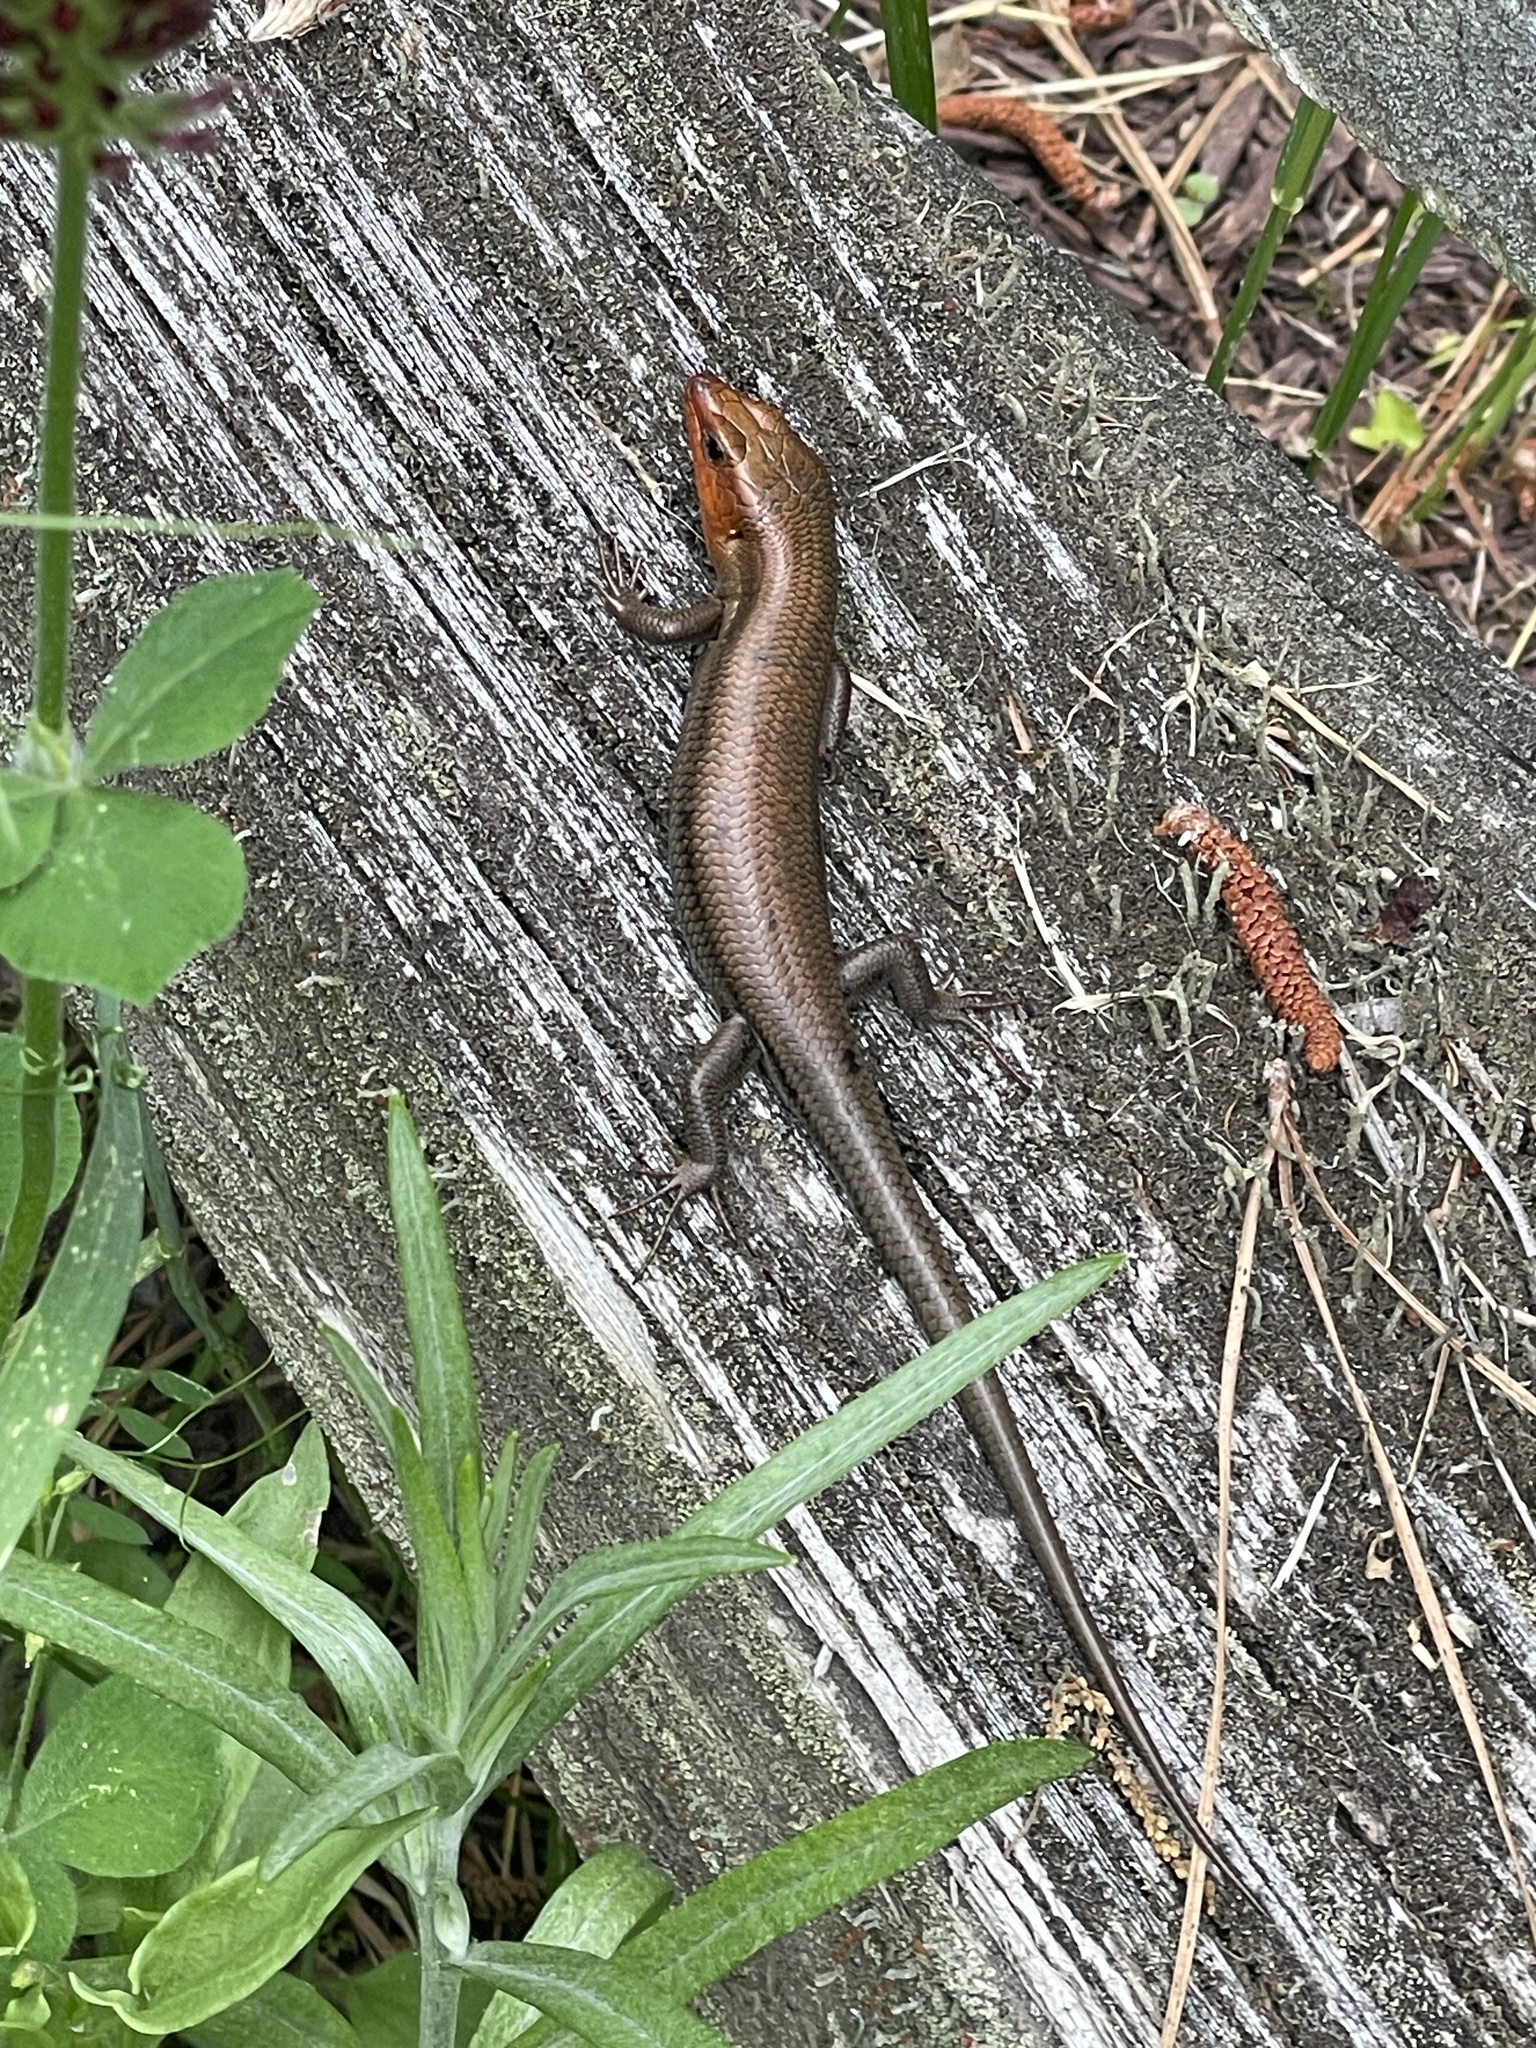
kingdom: Animalia
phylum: Chordata
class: Squamata
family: Scincidae
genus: Plestiodon
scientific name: Plestiodon fasciatus
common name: Five-lined skink
